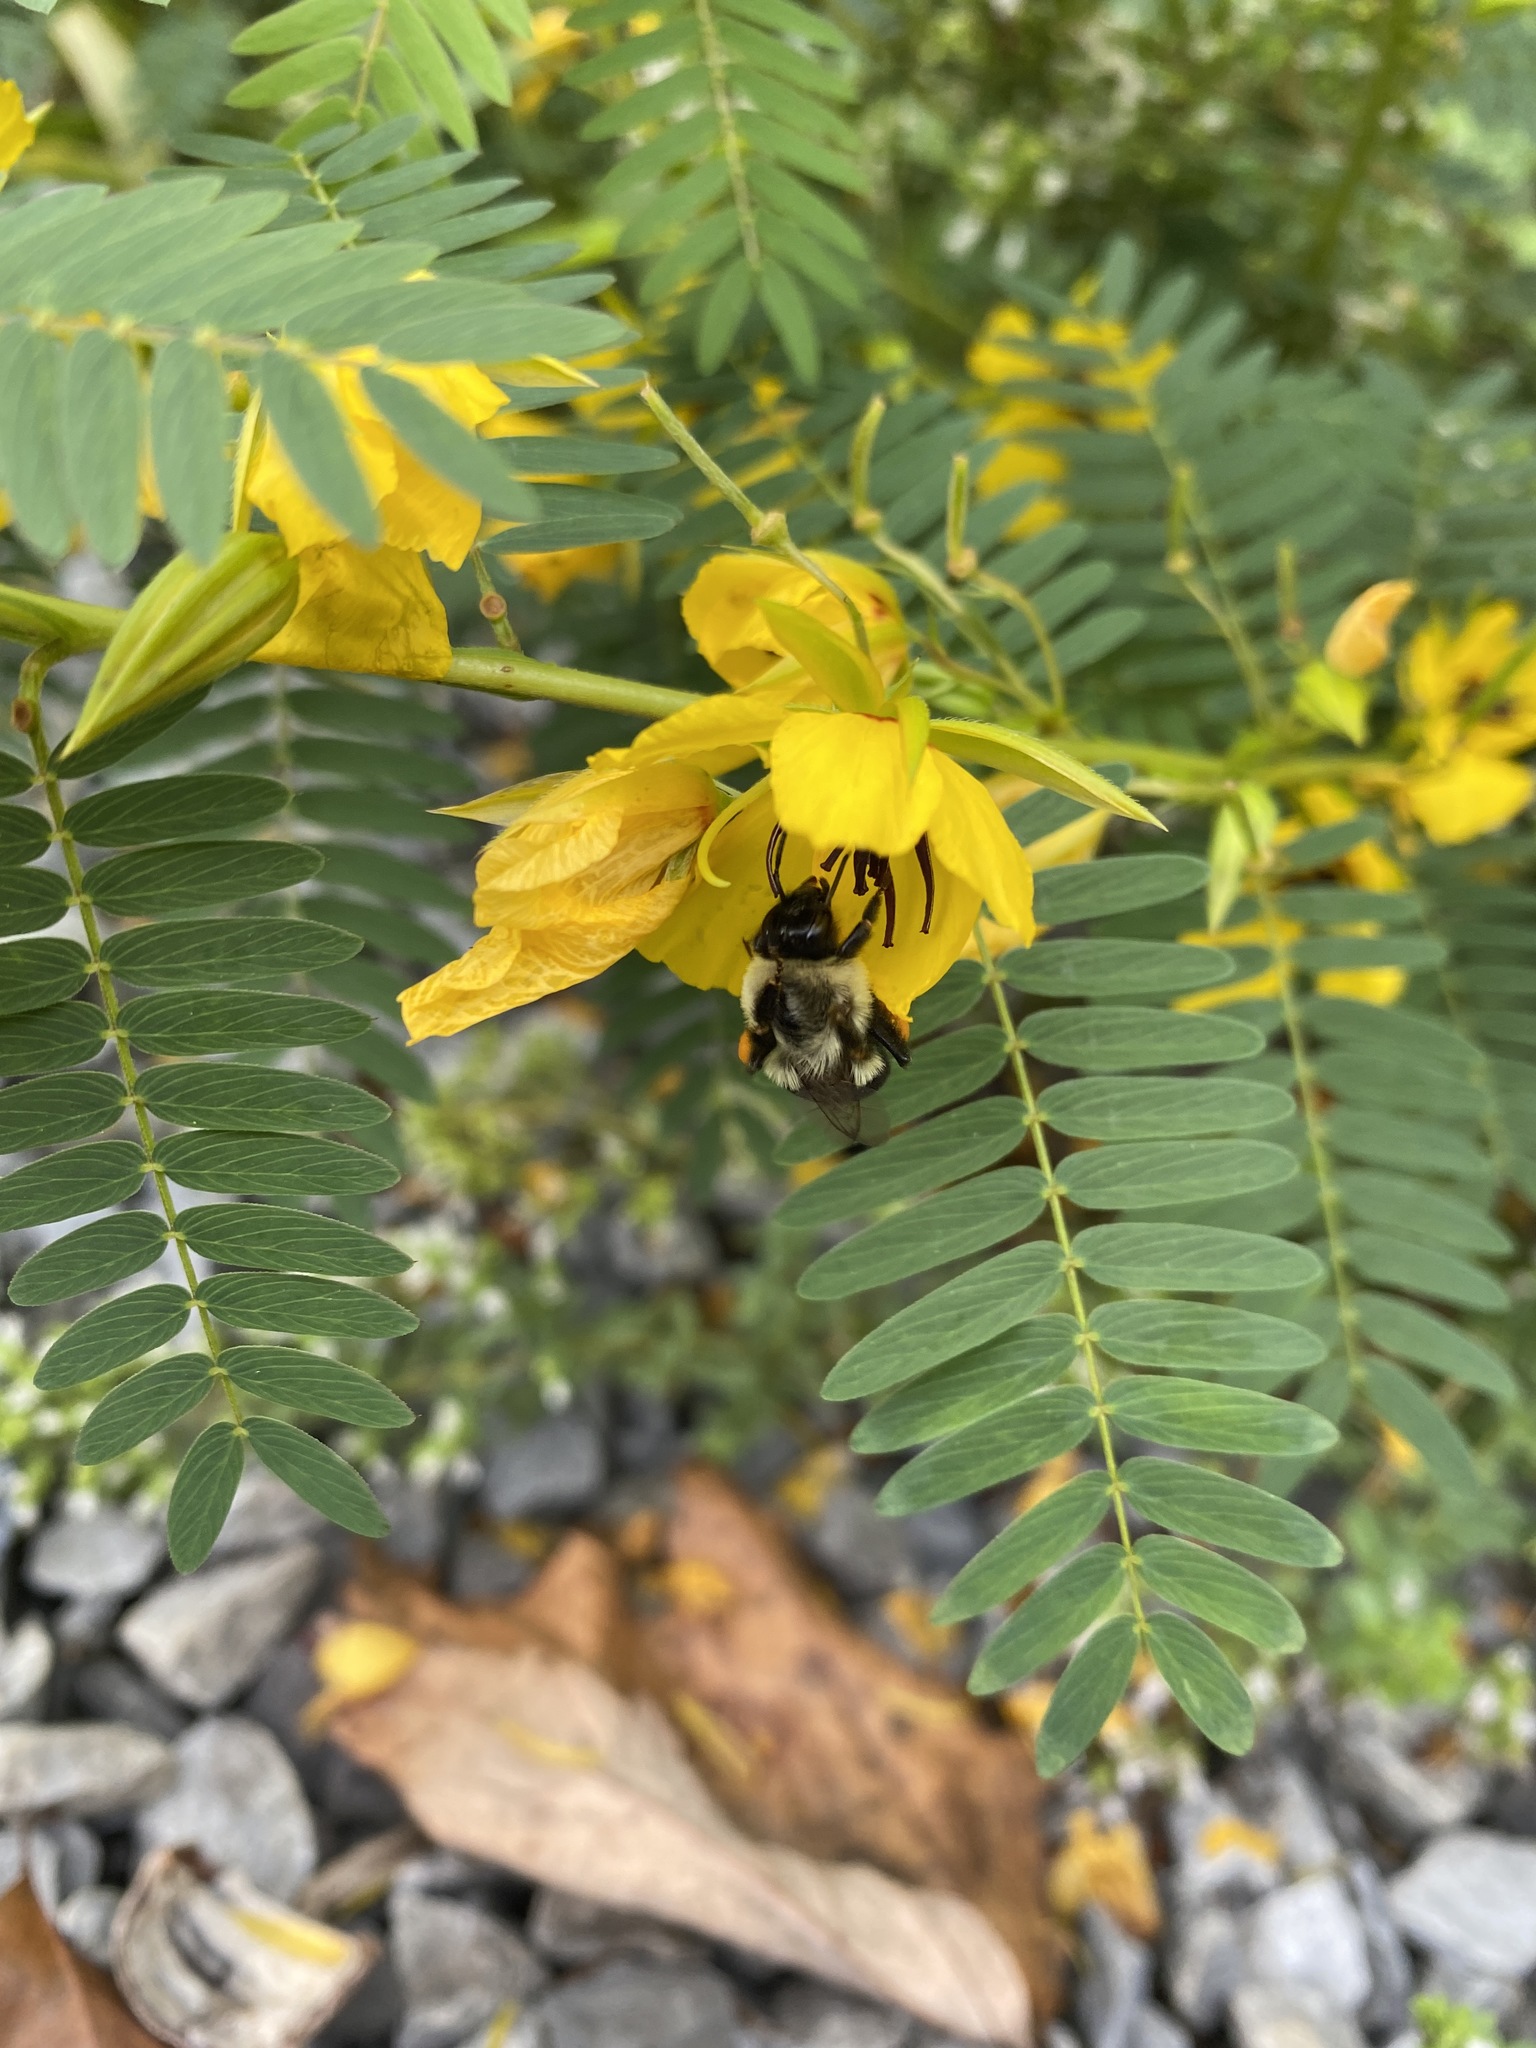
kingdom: Animalia
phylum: Arthropoda
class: Insecta
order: Hymenoptera
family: Apidae
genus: Bombus
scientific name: Bombus impatiens
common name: Common eastern bumble bee
